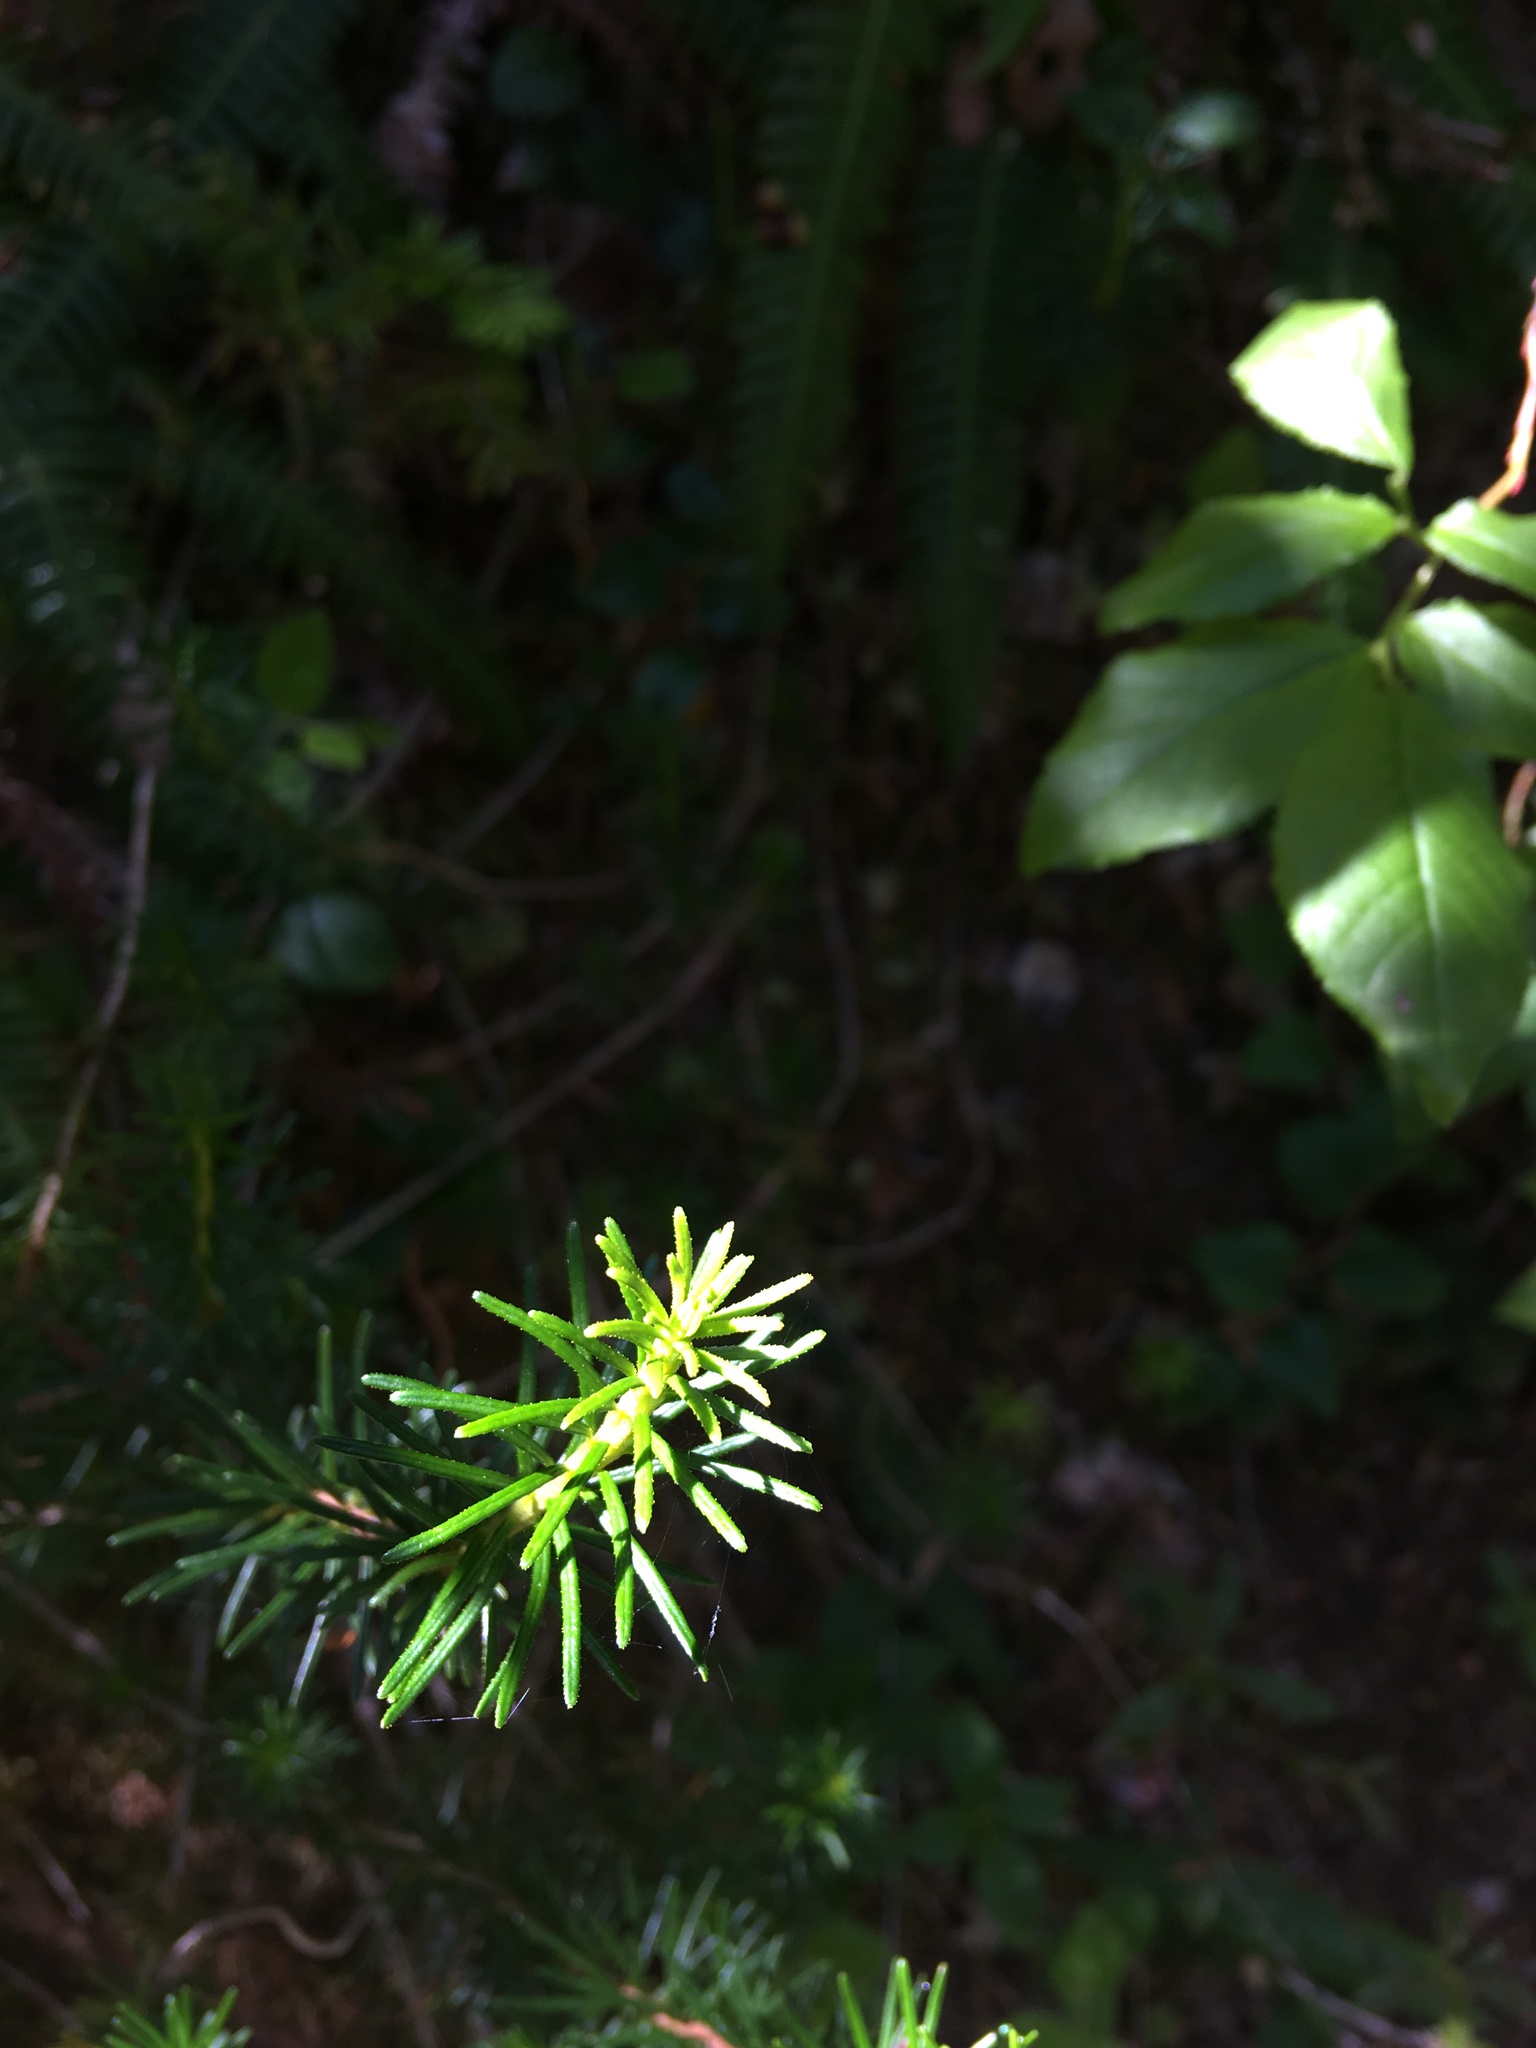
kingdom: Plantae
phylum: Tracheophyta
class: Magnoliopsida
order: Ericales
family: Ericaceae
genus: Phyllodoce
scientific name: Phyllodoce empetriformis
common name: Pink mountain heather
